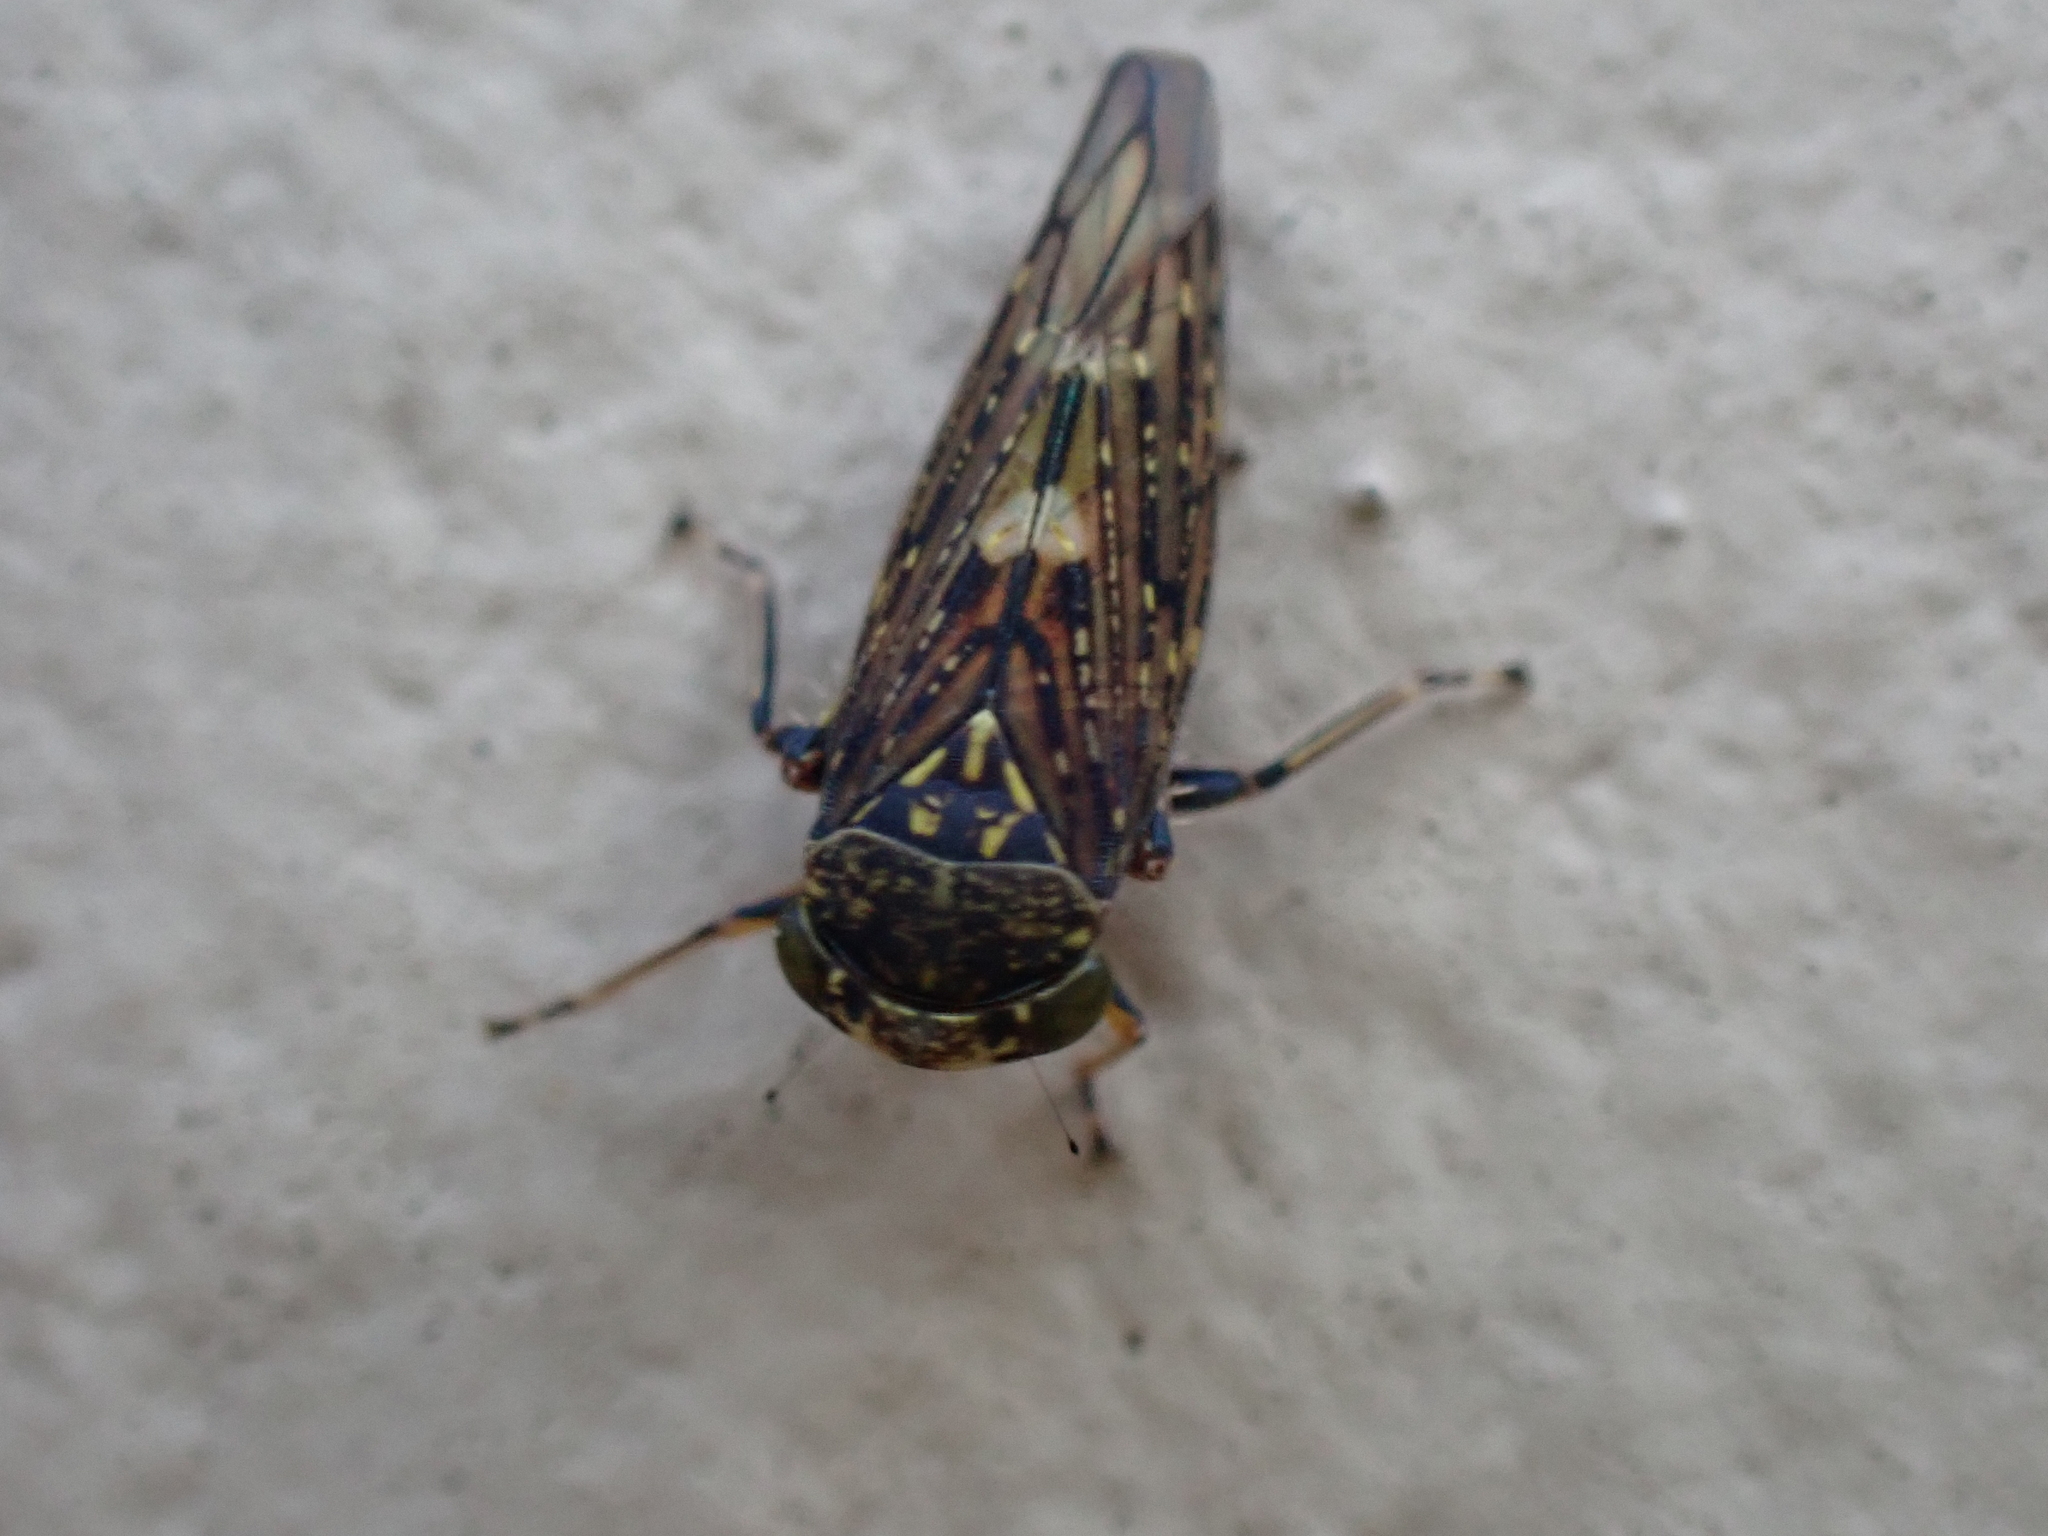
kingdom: Animalia
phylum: Arthropoda
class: Insecta
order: Hemiptera
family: Cicadellidae
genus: Acericerus
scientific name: Acericerus heydenii
